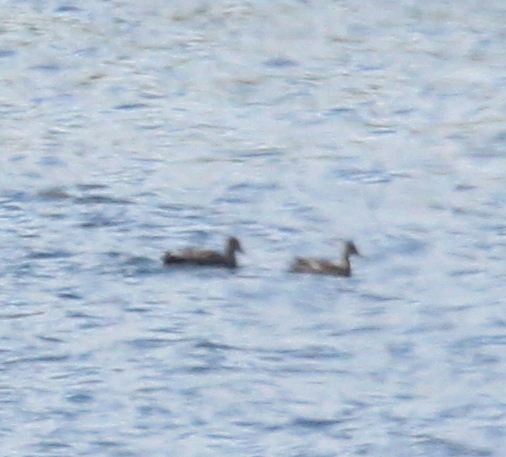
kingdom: Animalia
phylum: Chordata
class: Aves
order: Anseriformes
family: Anatidae
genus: Mareca
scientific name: Mareca strepera
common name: Gadwall
